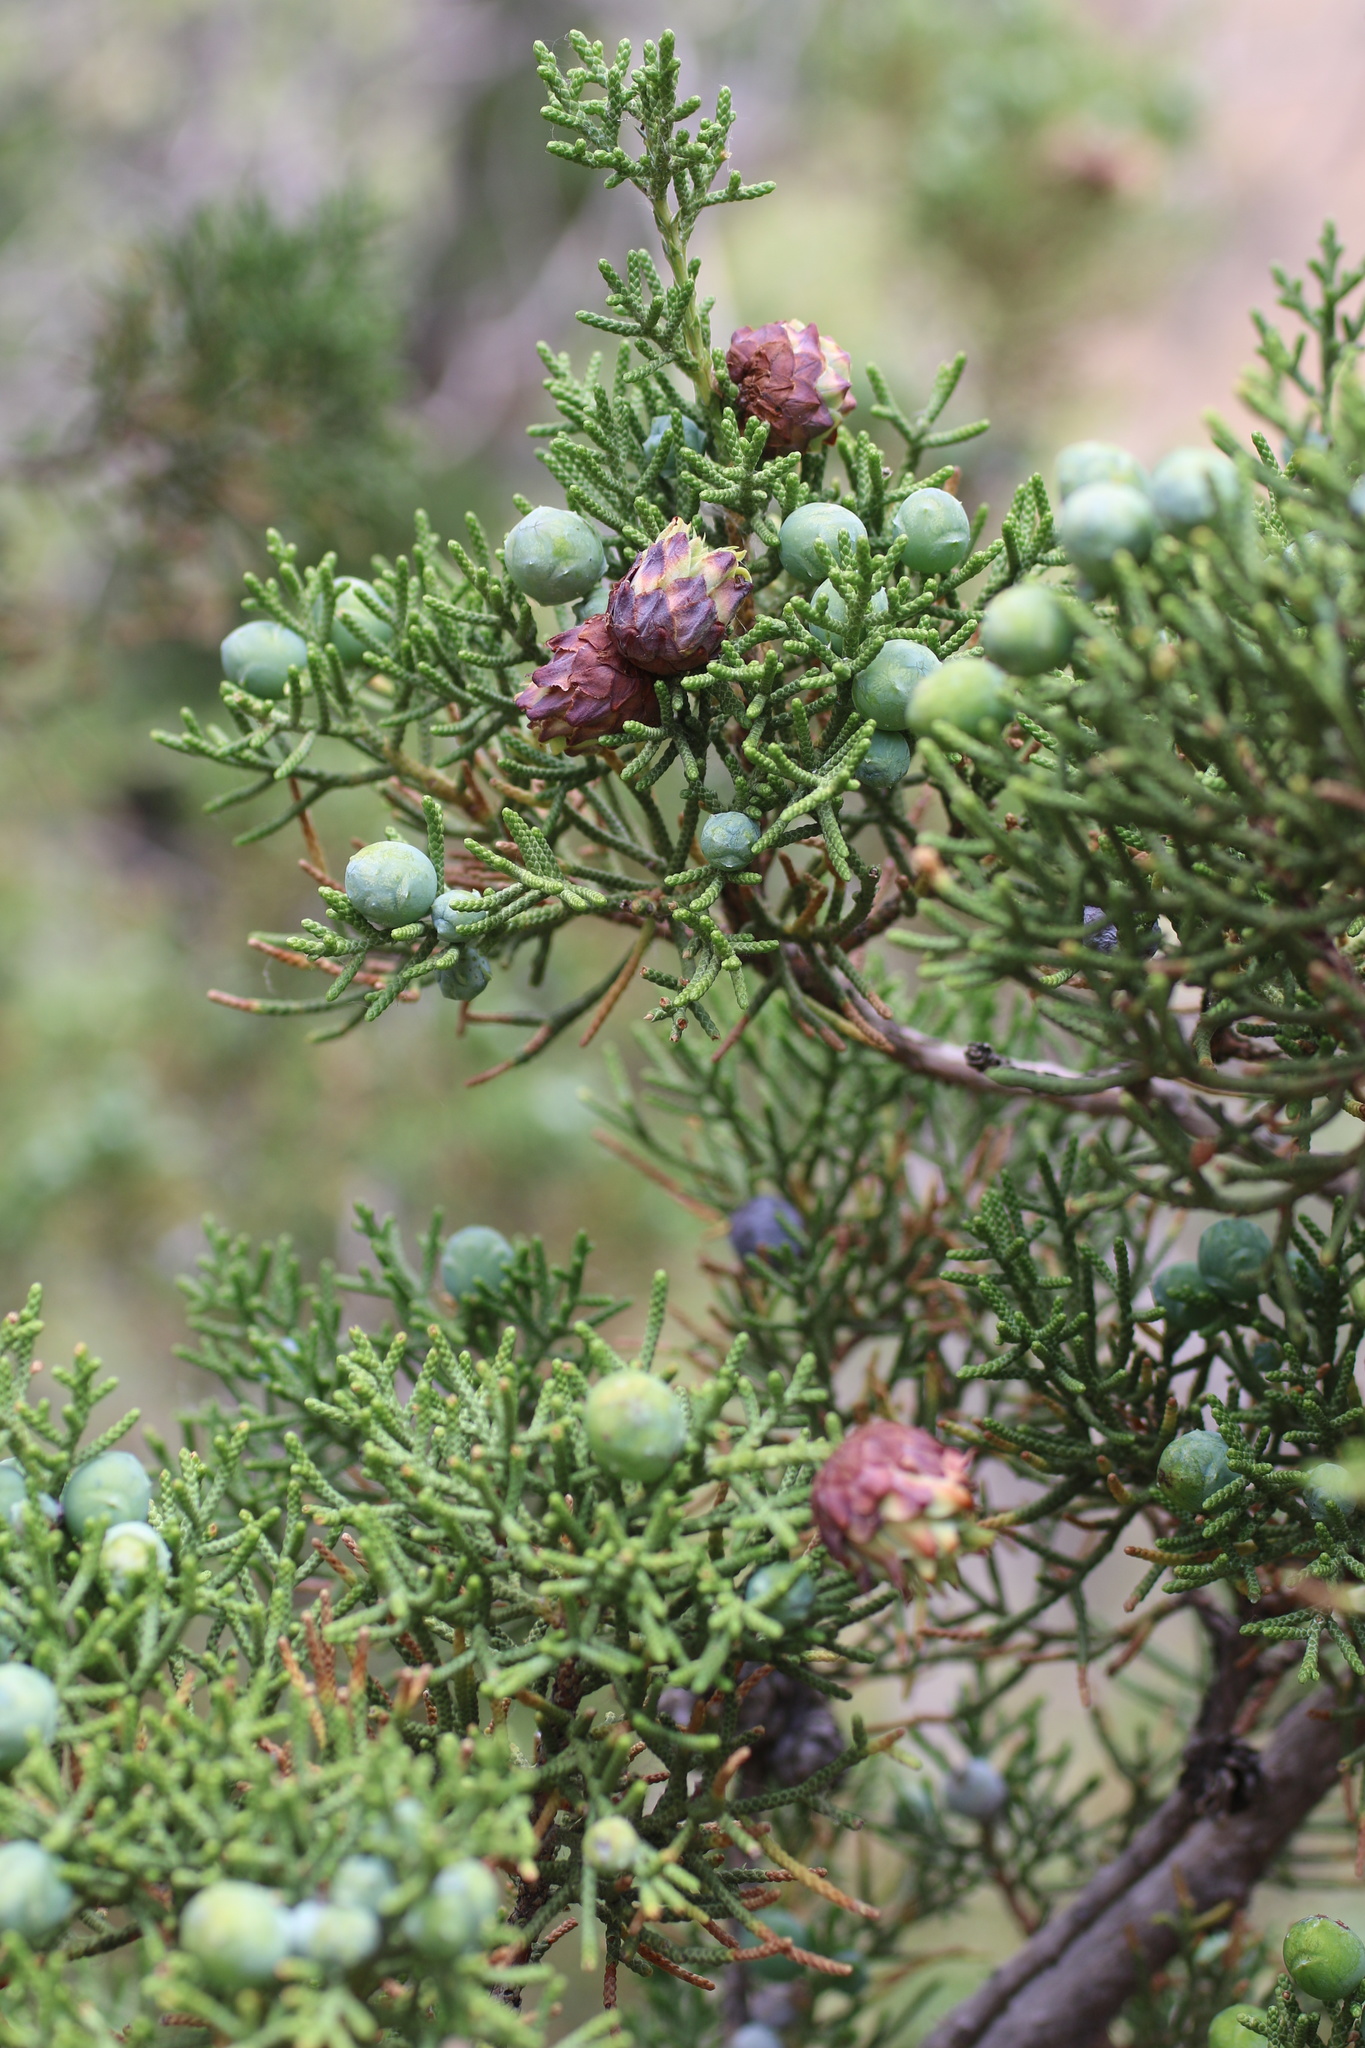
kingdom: Plantae
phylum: Tracheophyta
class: Pinopsida
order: Pinales
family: Cupressaceae
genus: Juniperus
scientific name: Juniperus californica
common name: California juniper
